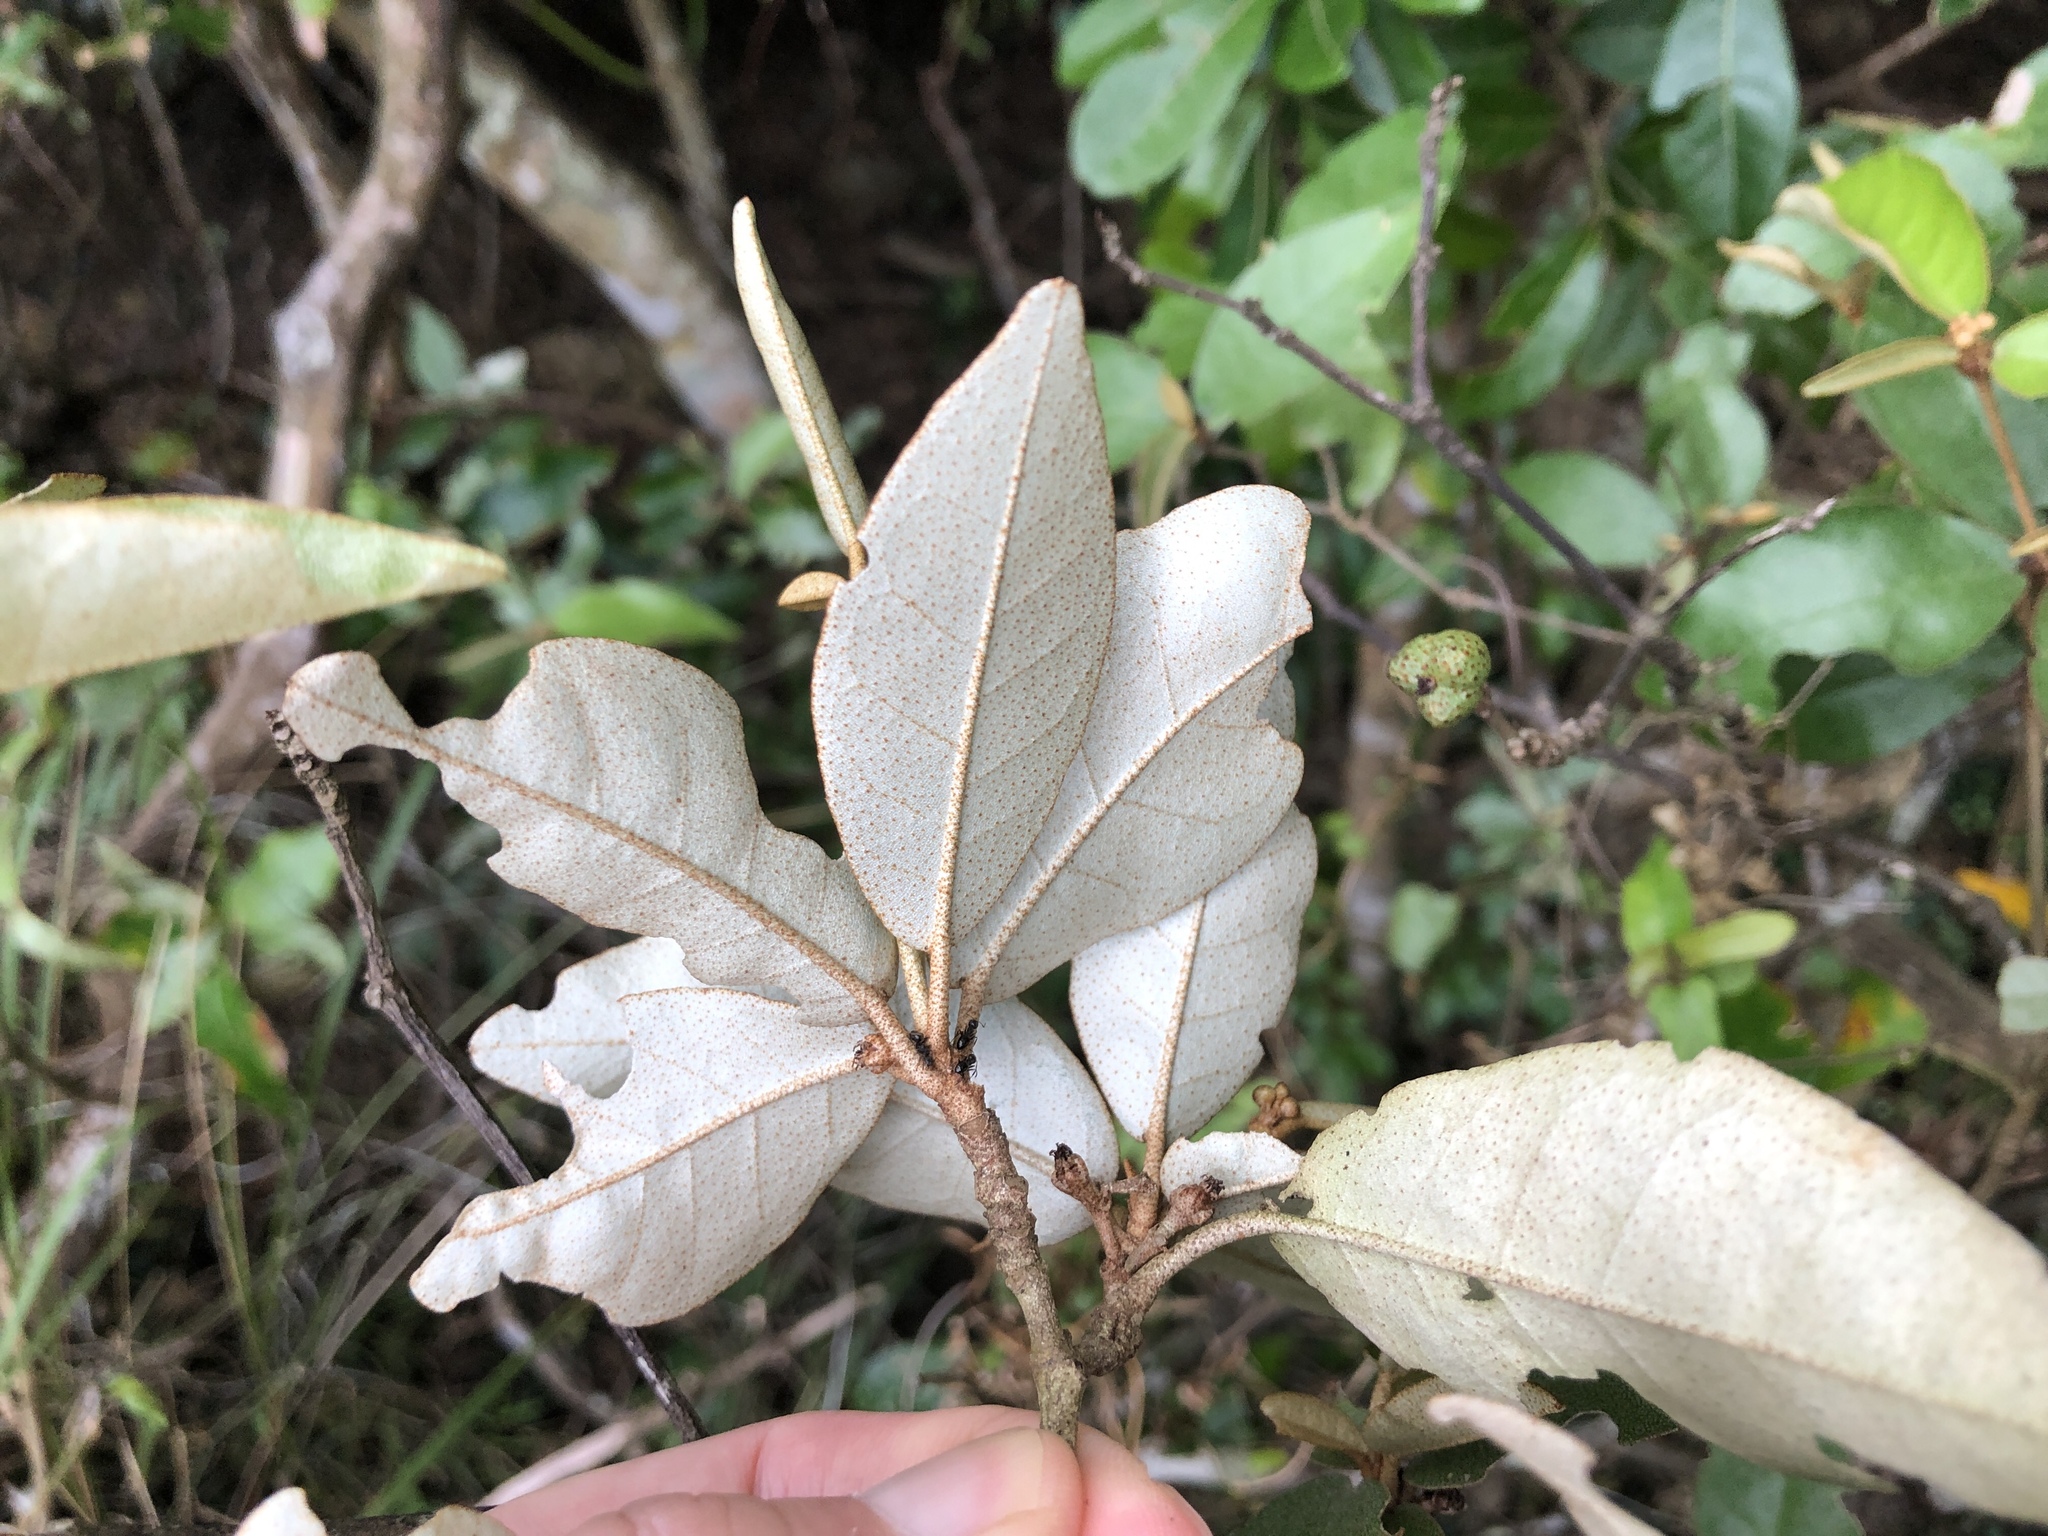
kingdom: Plantae
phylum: Tracheophyta
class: Magnoliopsida
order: Malpighiales
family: Euphorbiaceae
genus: Croton
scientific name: Croton cascarilloides
